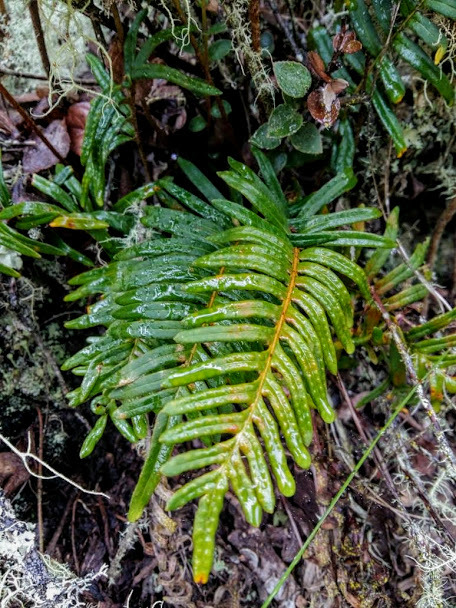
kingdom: Plantae
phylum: Tracheophyta
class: Polypodiopsida
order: Polypodiales
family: Polypodiaceae
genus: Pleopeltis
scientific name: Pleopeltis orientalis
